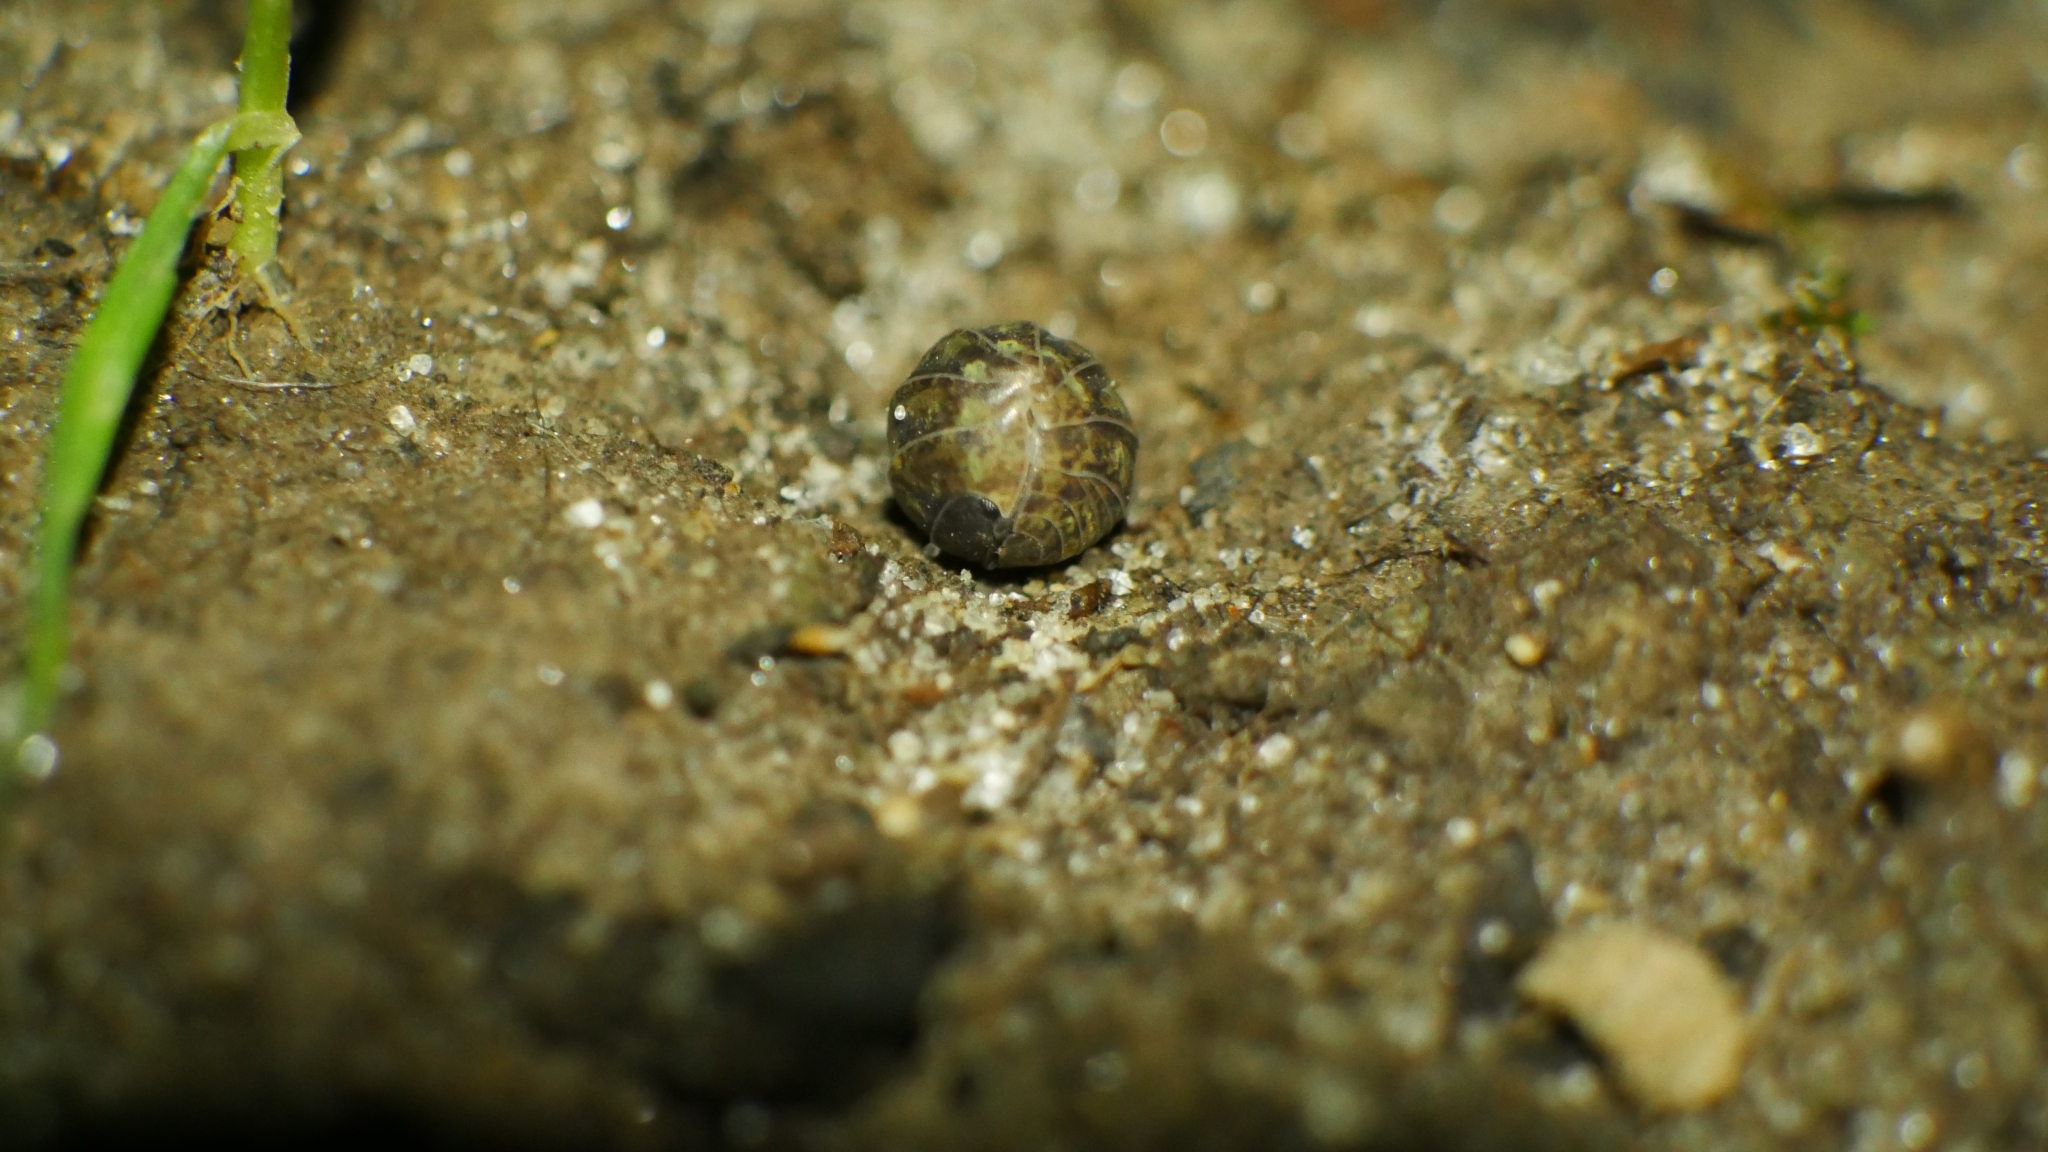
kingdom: Animalia
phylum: Arthropoda
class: Malacostraca
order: Isopoda
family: Armadillidiidae
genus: Armadillidium
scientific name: Armadillidium vulgare
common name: Common pill woodlouse
